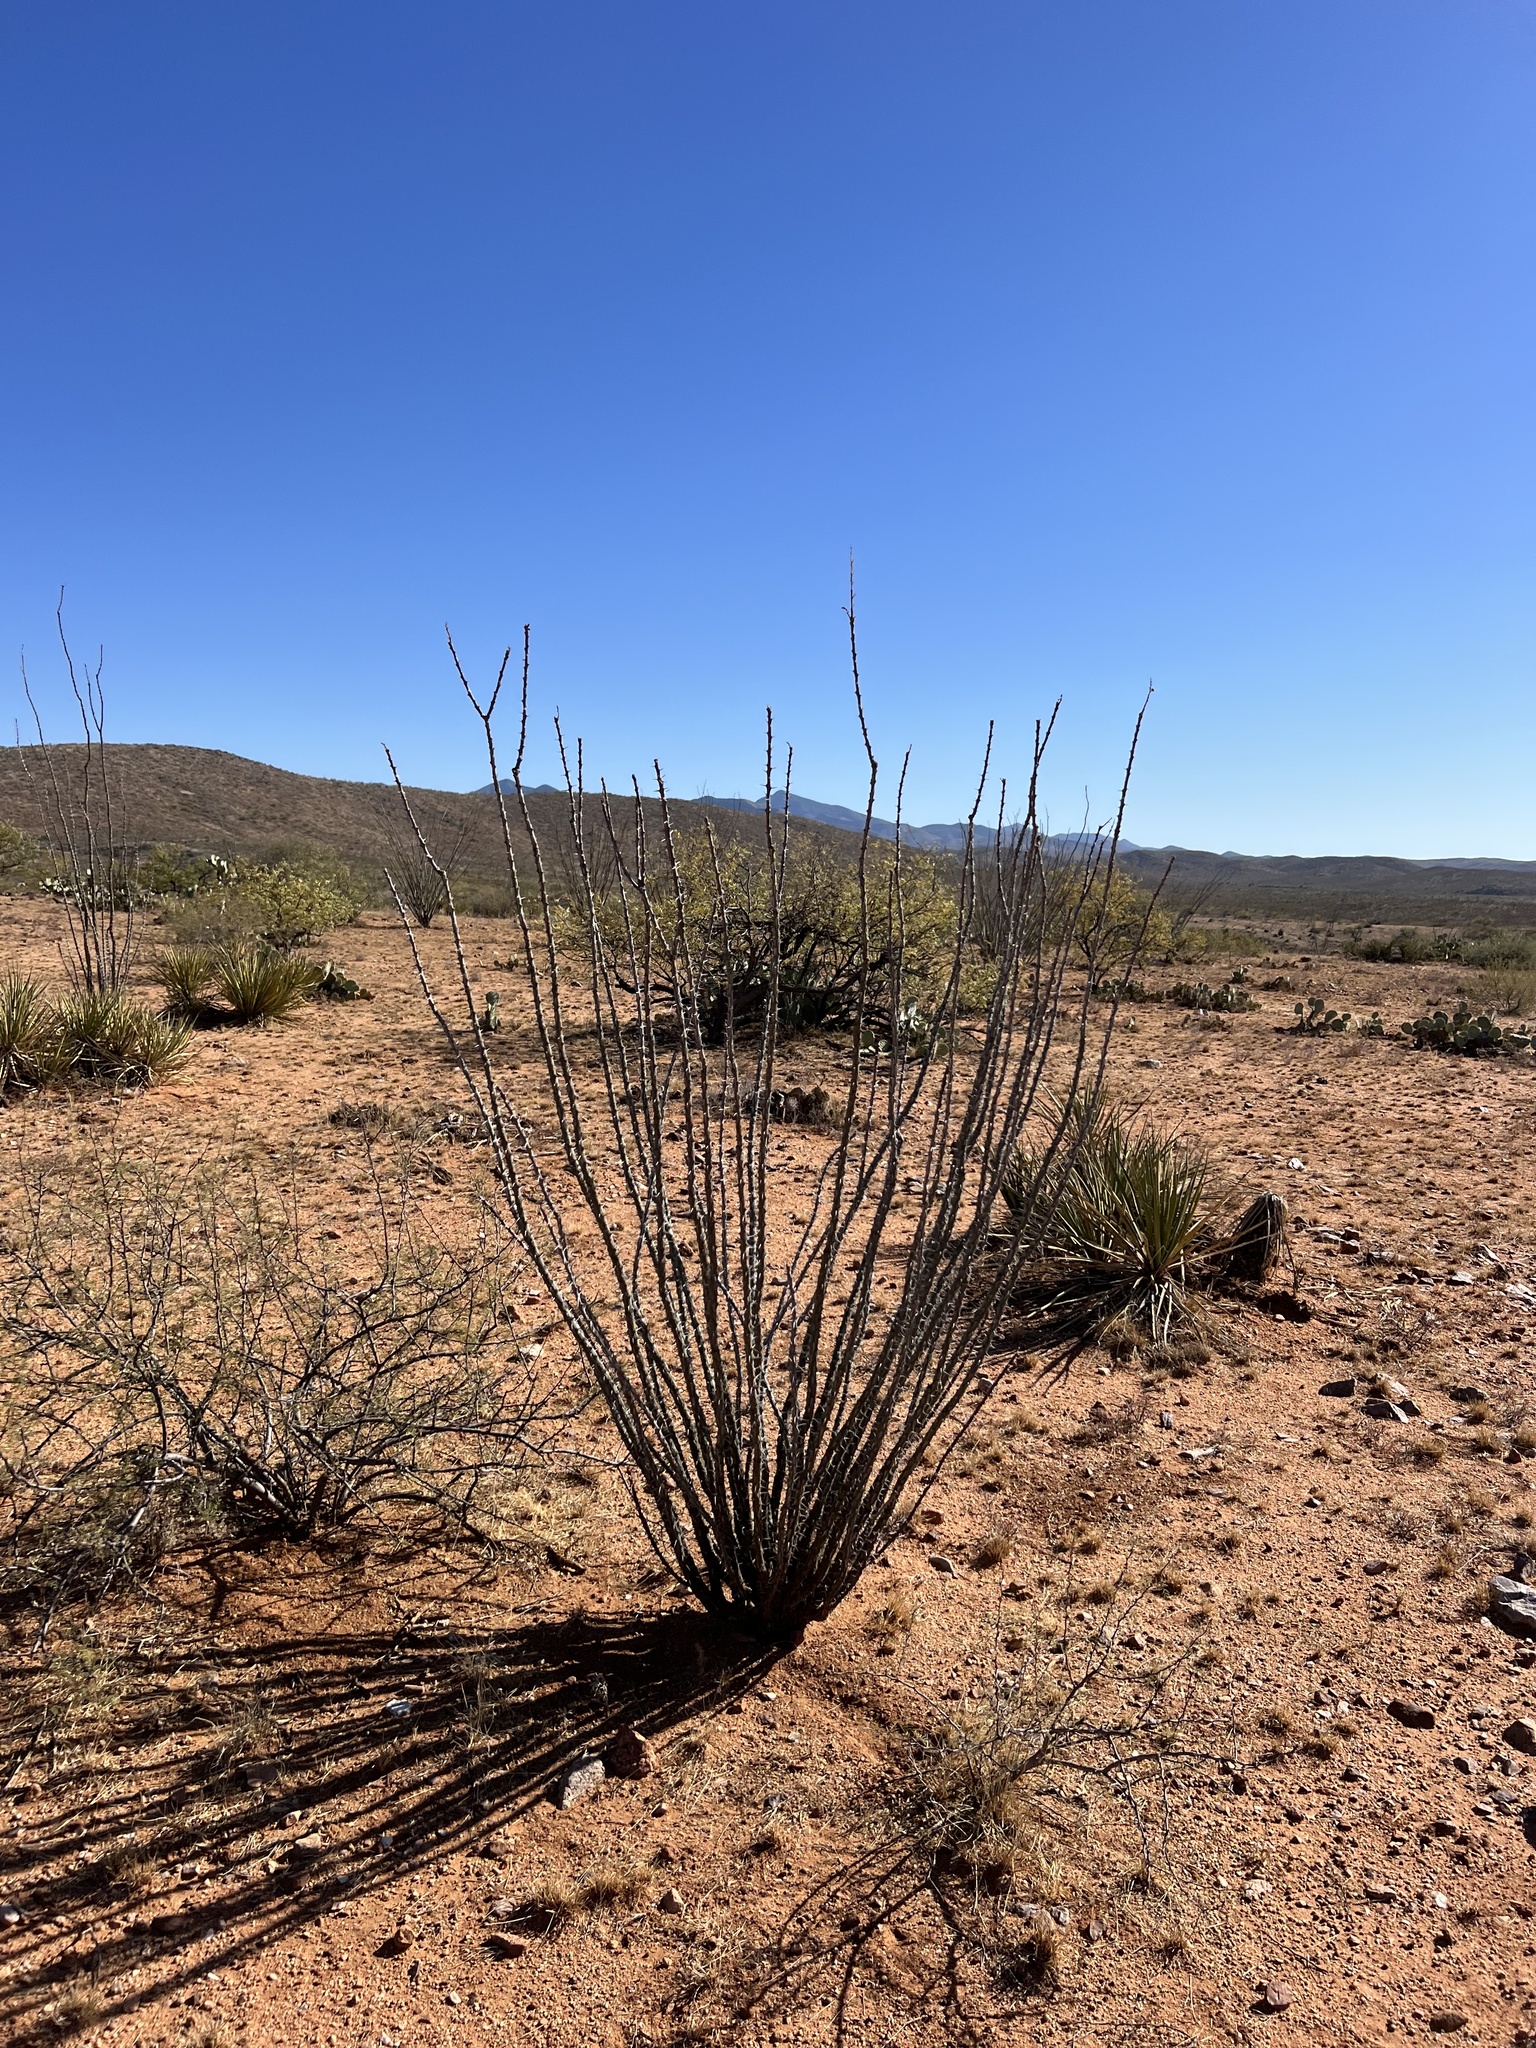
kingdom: Plantae
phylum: Tracheophyta
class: Magnoliopsida
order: Ericales
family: Fouquieriaceae
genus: Fouquieria
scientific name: Fouquieria splendens
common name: Vine-cactus
